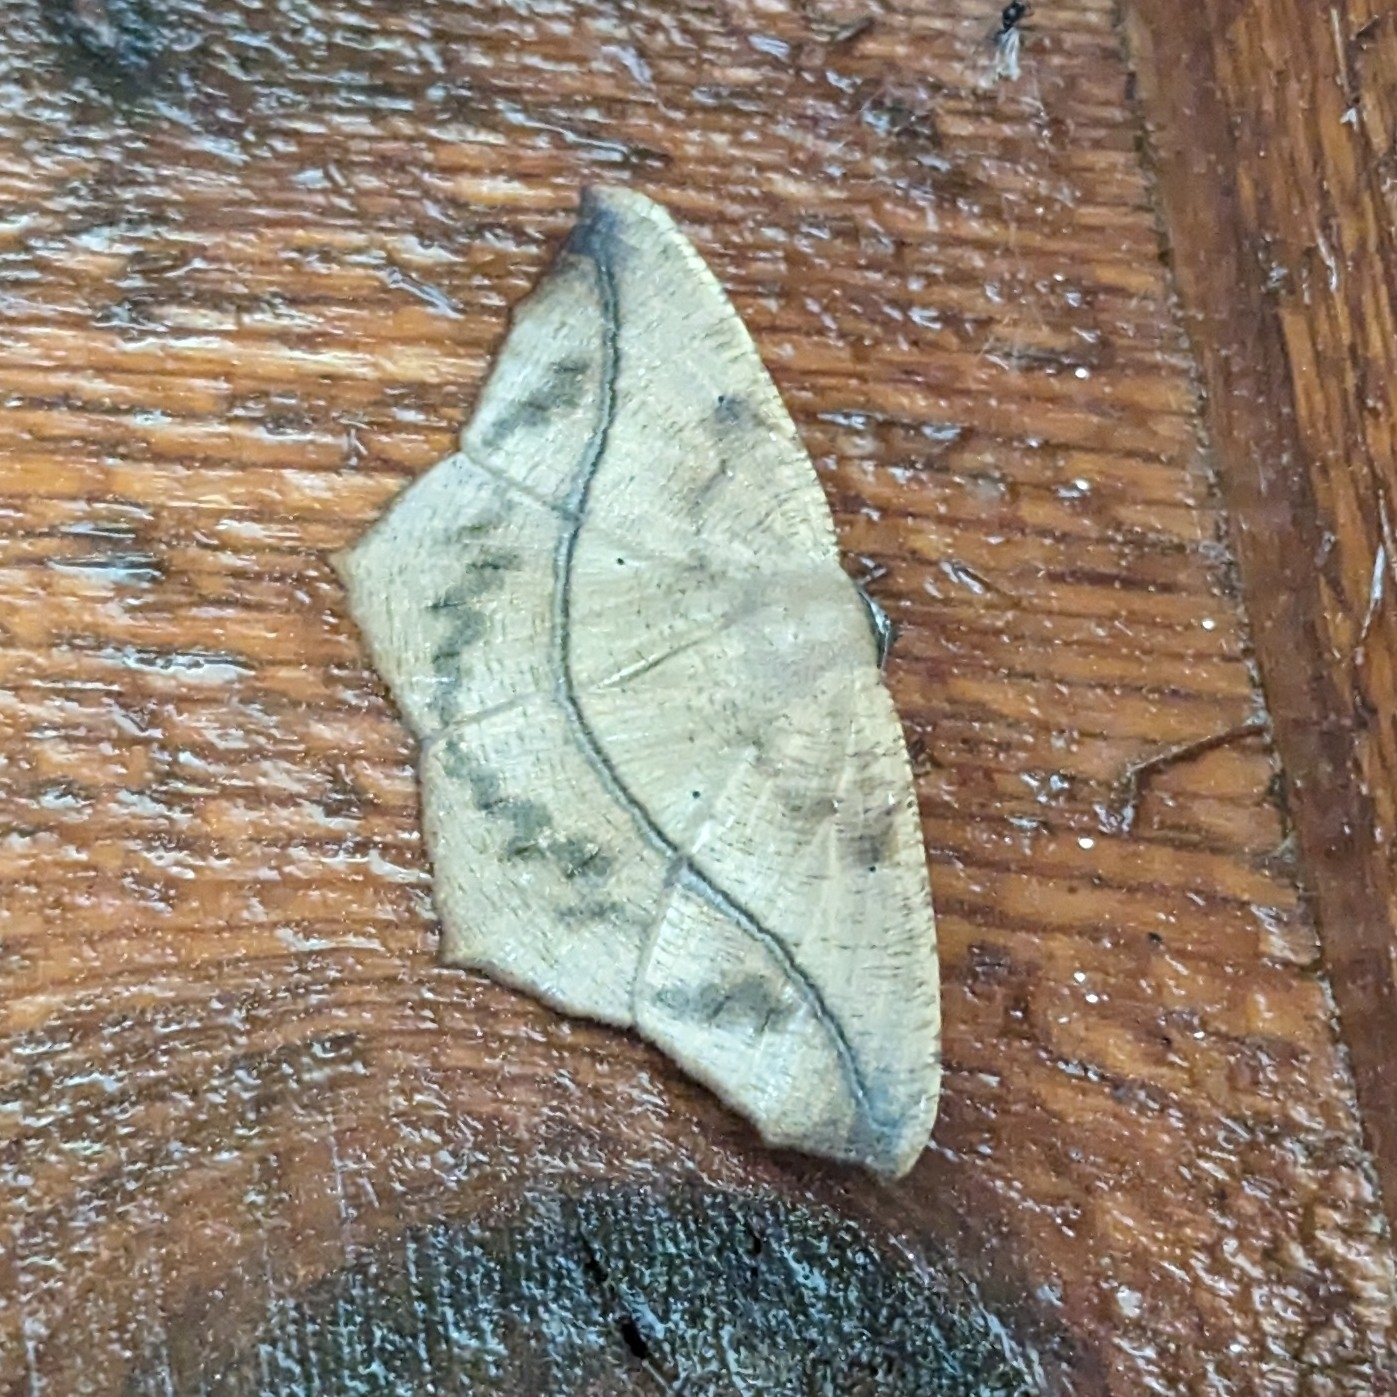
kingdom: Animalia
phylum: Arthropoda
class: Insecta
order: Lepidoptera
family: Geometridae
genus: Prochoerodes
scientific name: Prochoerodes lineola
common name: Large maple spanworm
